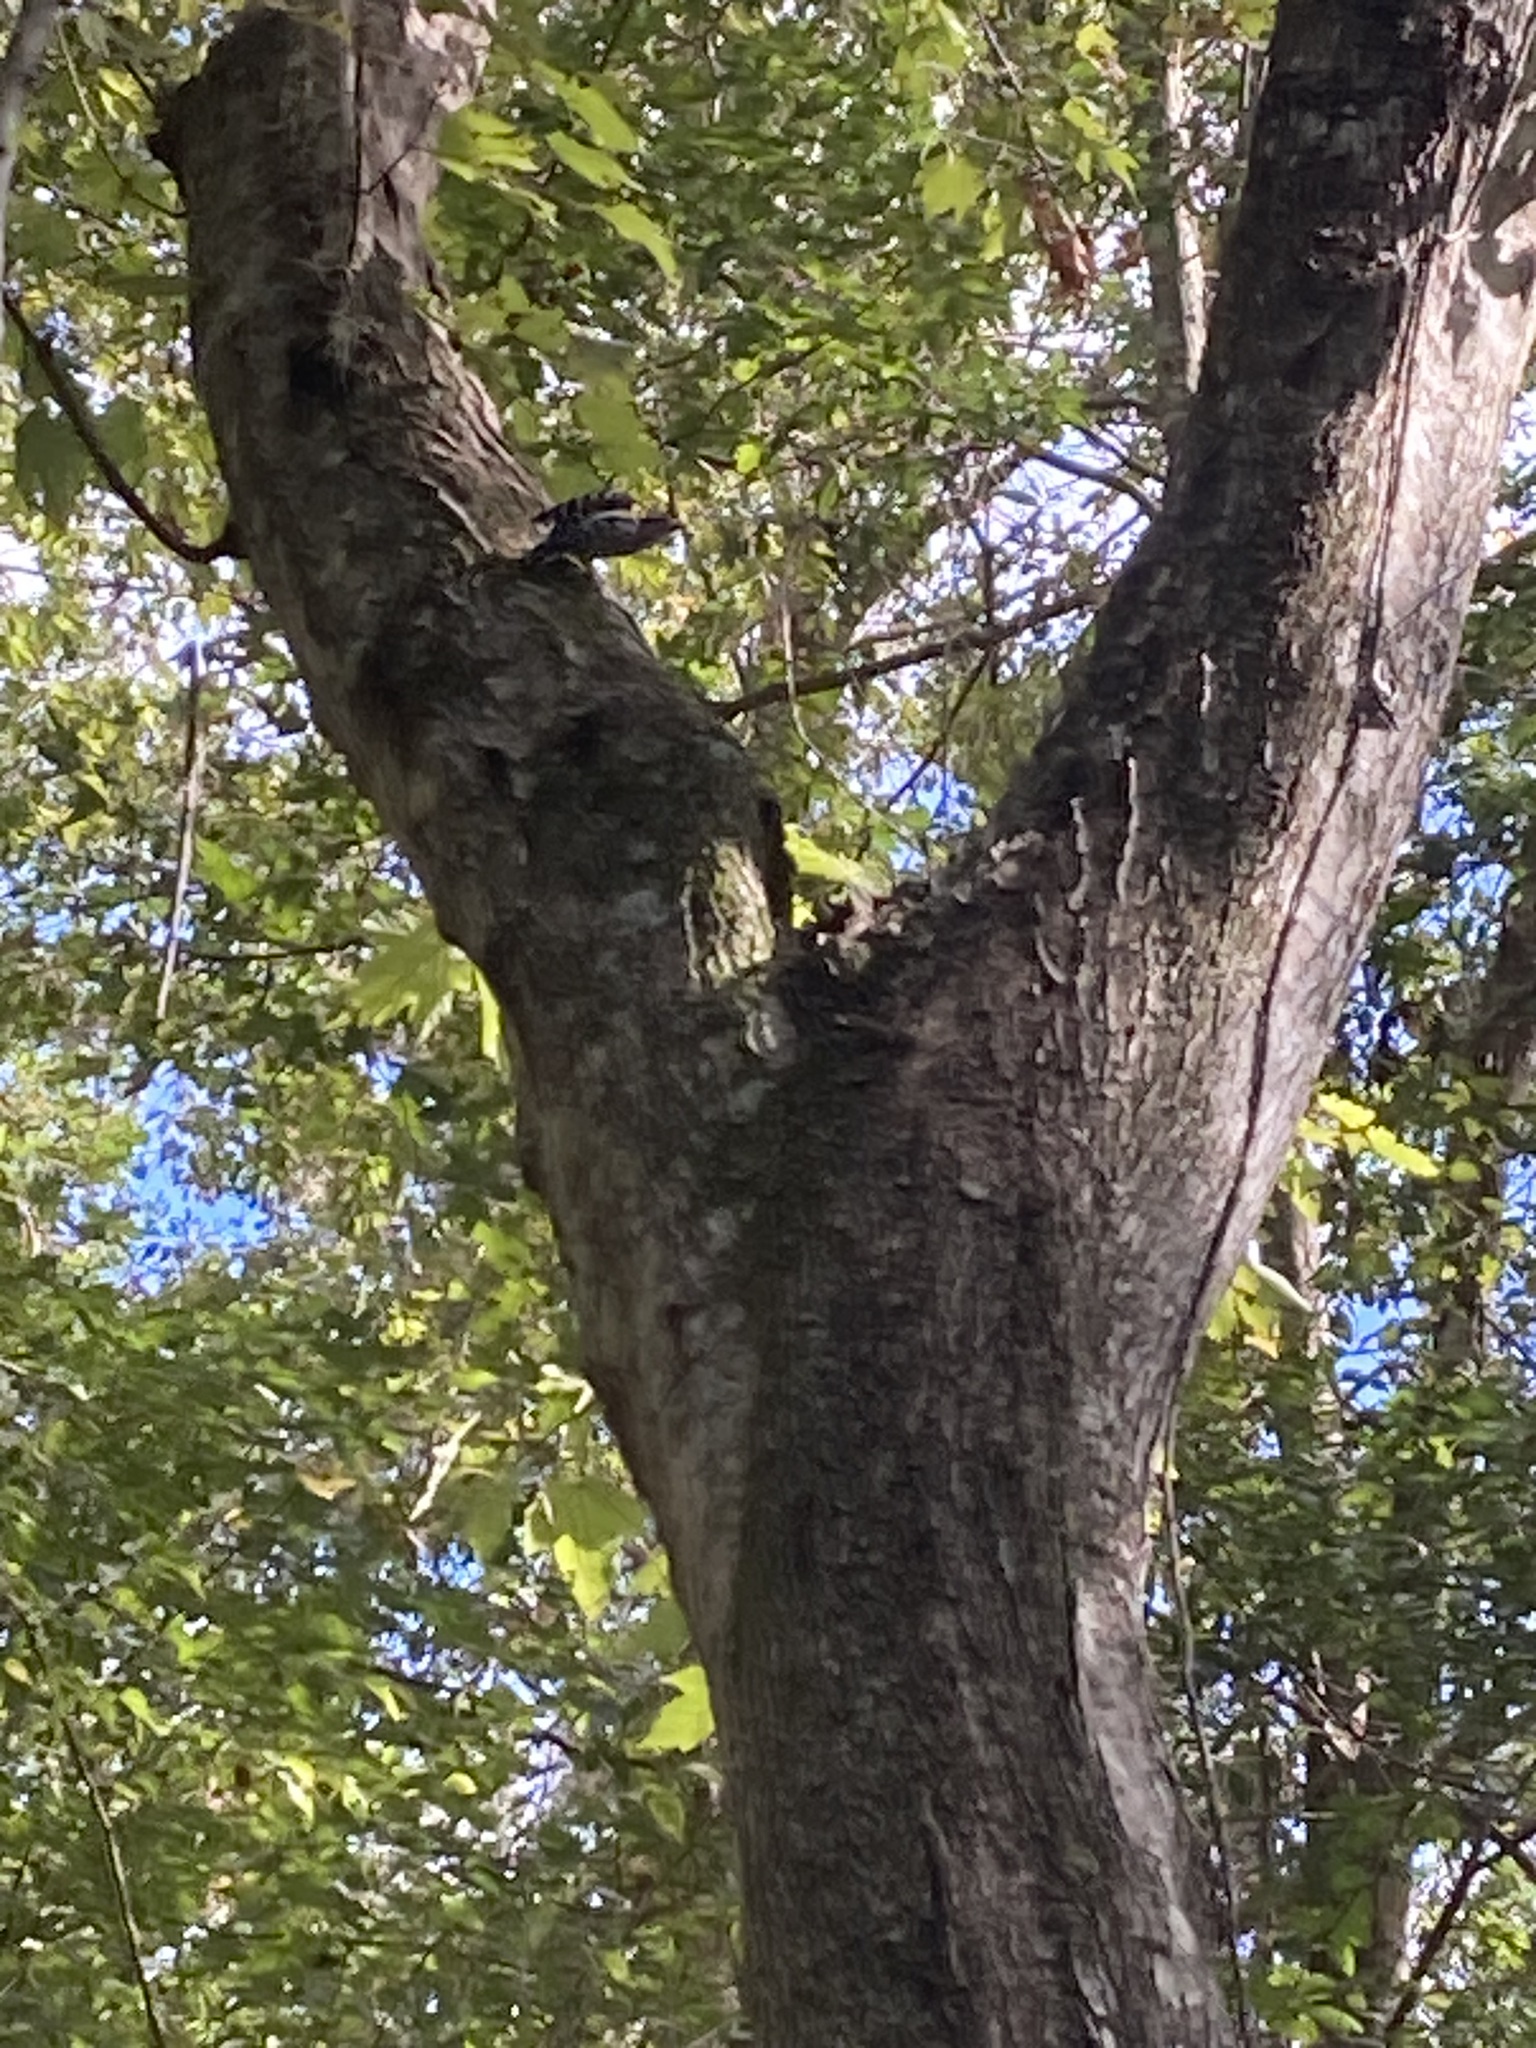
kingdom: Animalia
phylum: Chordata
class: Aves
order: Piciformes
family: Picidae
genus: Dryobates
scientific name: Dryobates pubescens
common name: Downy woodpecker
